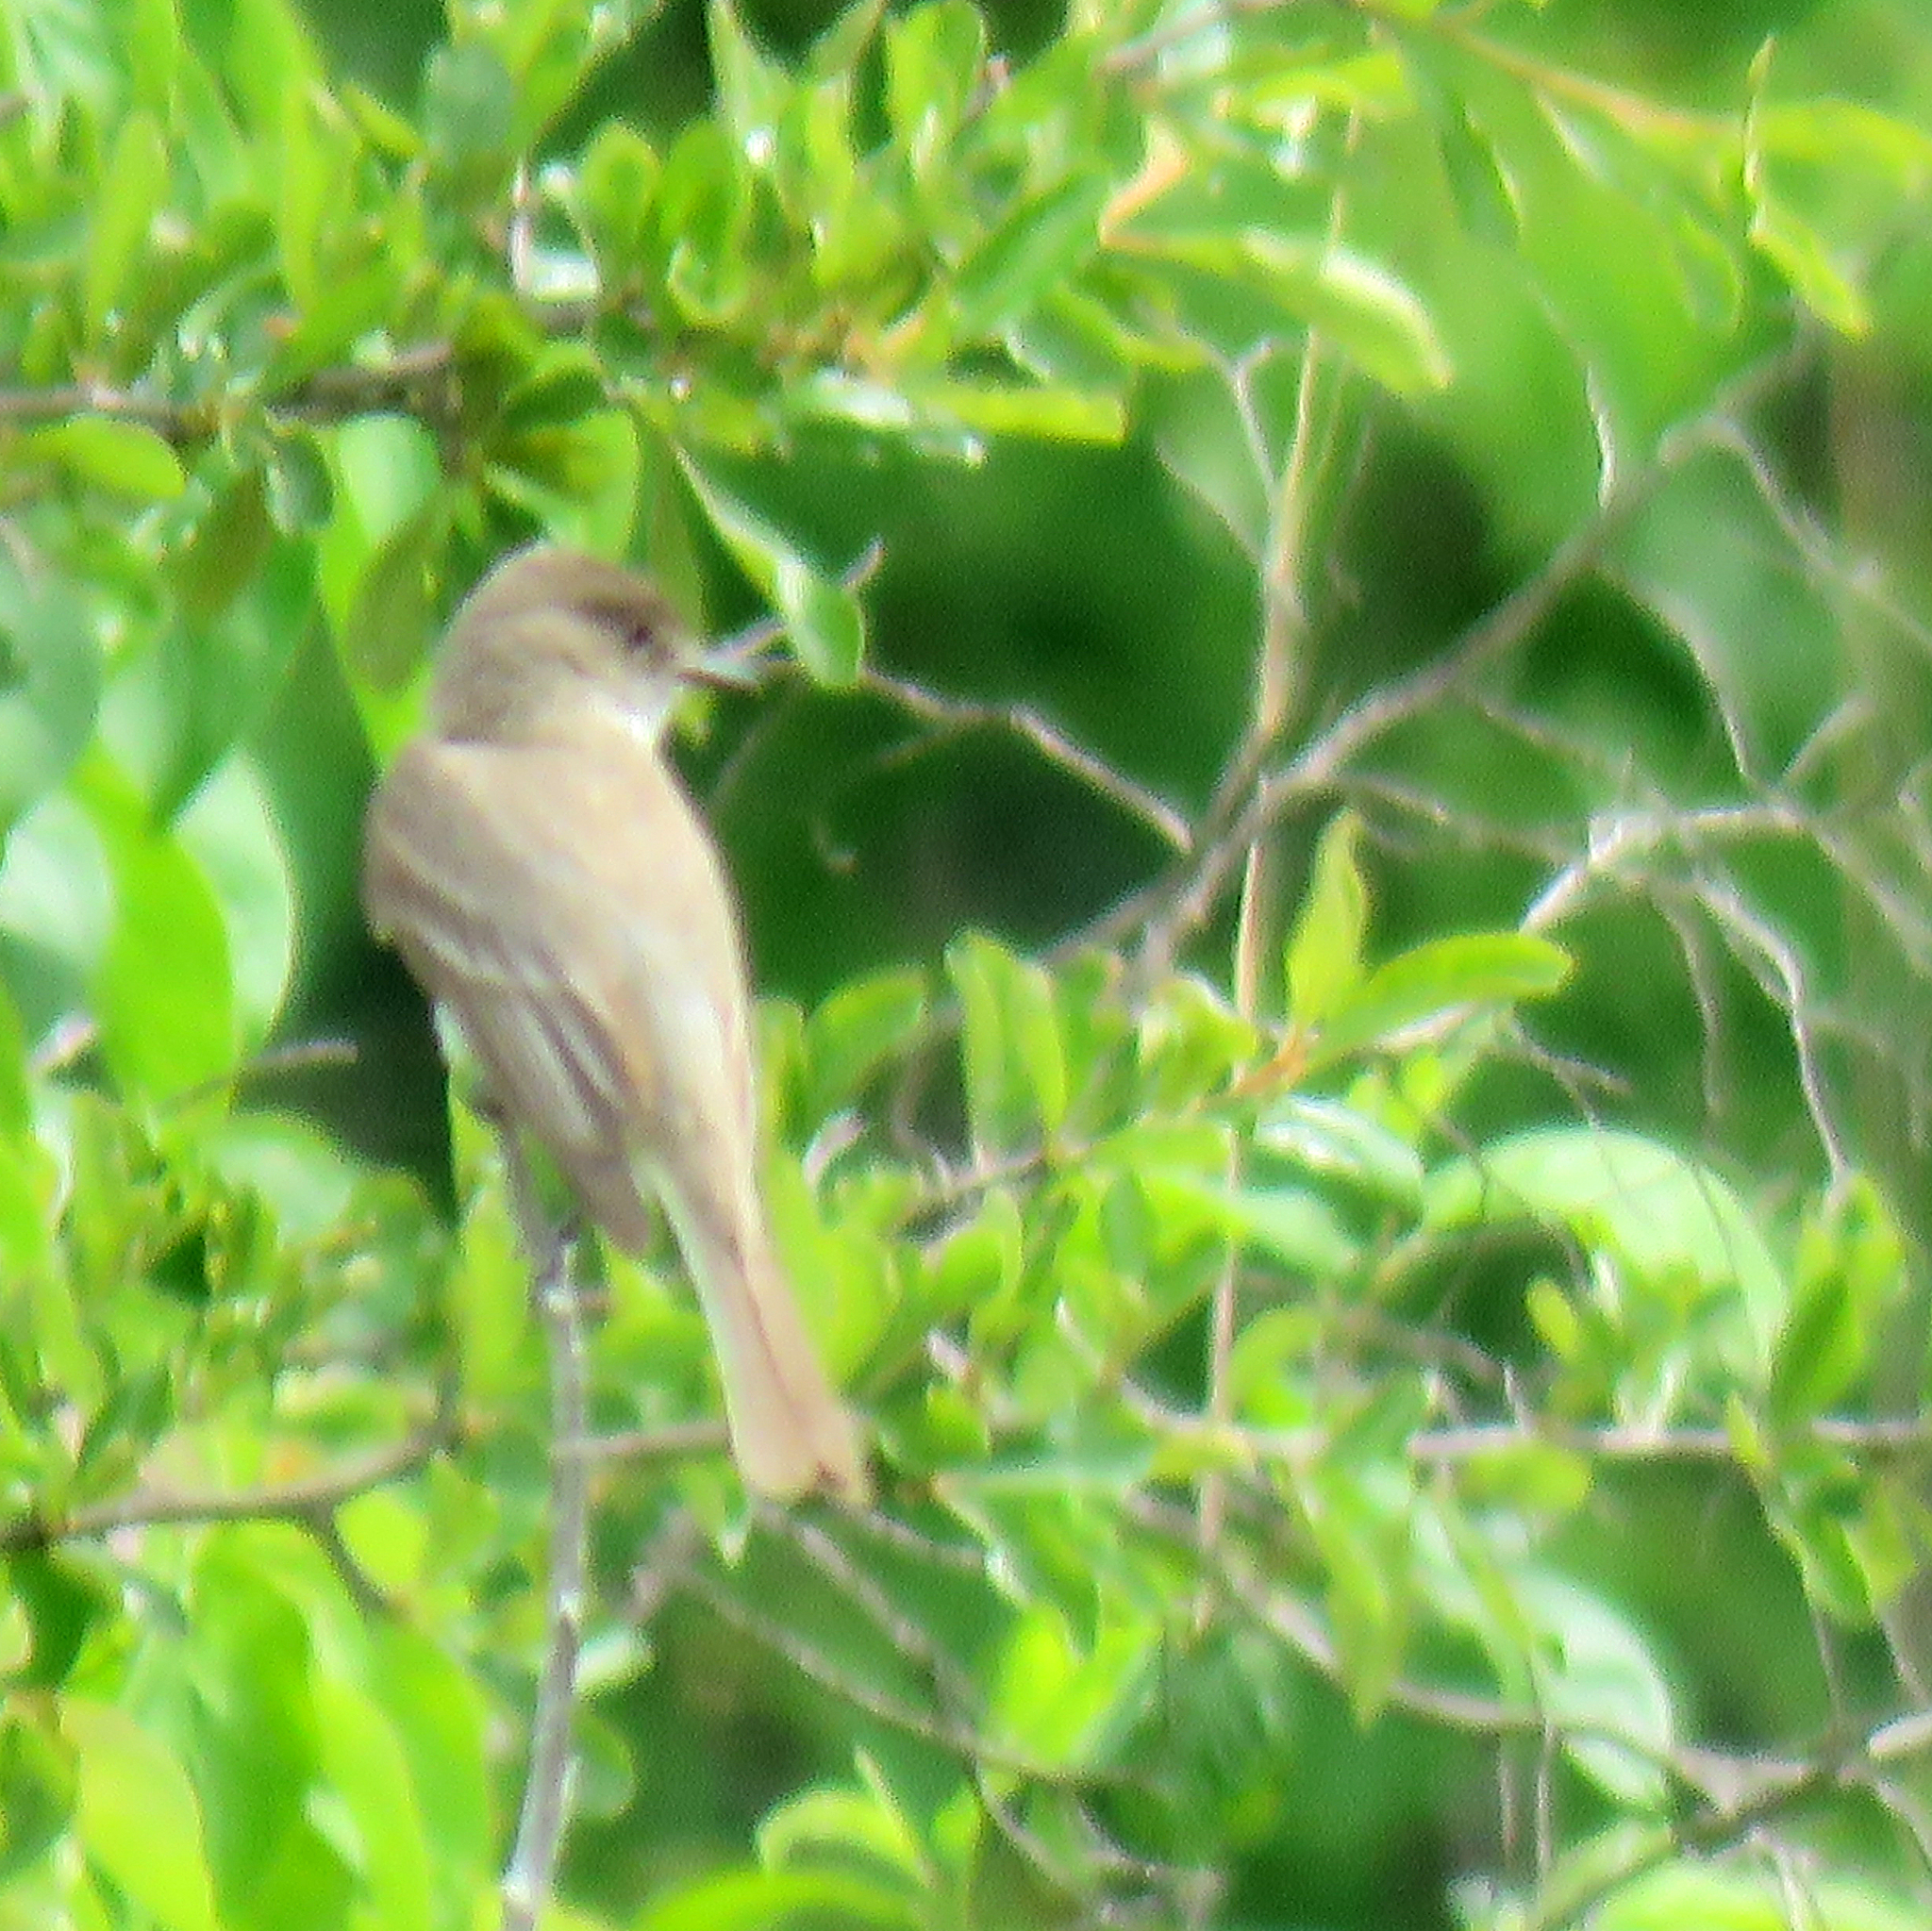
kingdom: Animalia
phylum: Chordata
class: Aves
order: Passeriformes
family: Tyrannidae
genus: Sayornis
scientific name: Sayornis phoebe
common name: Eastern phoebe
